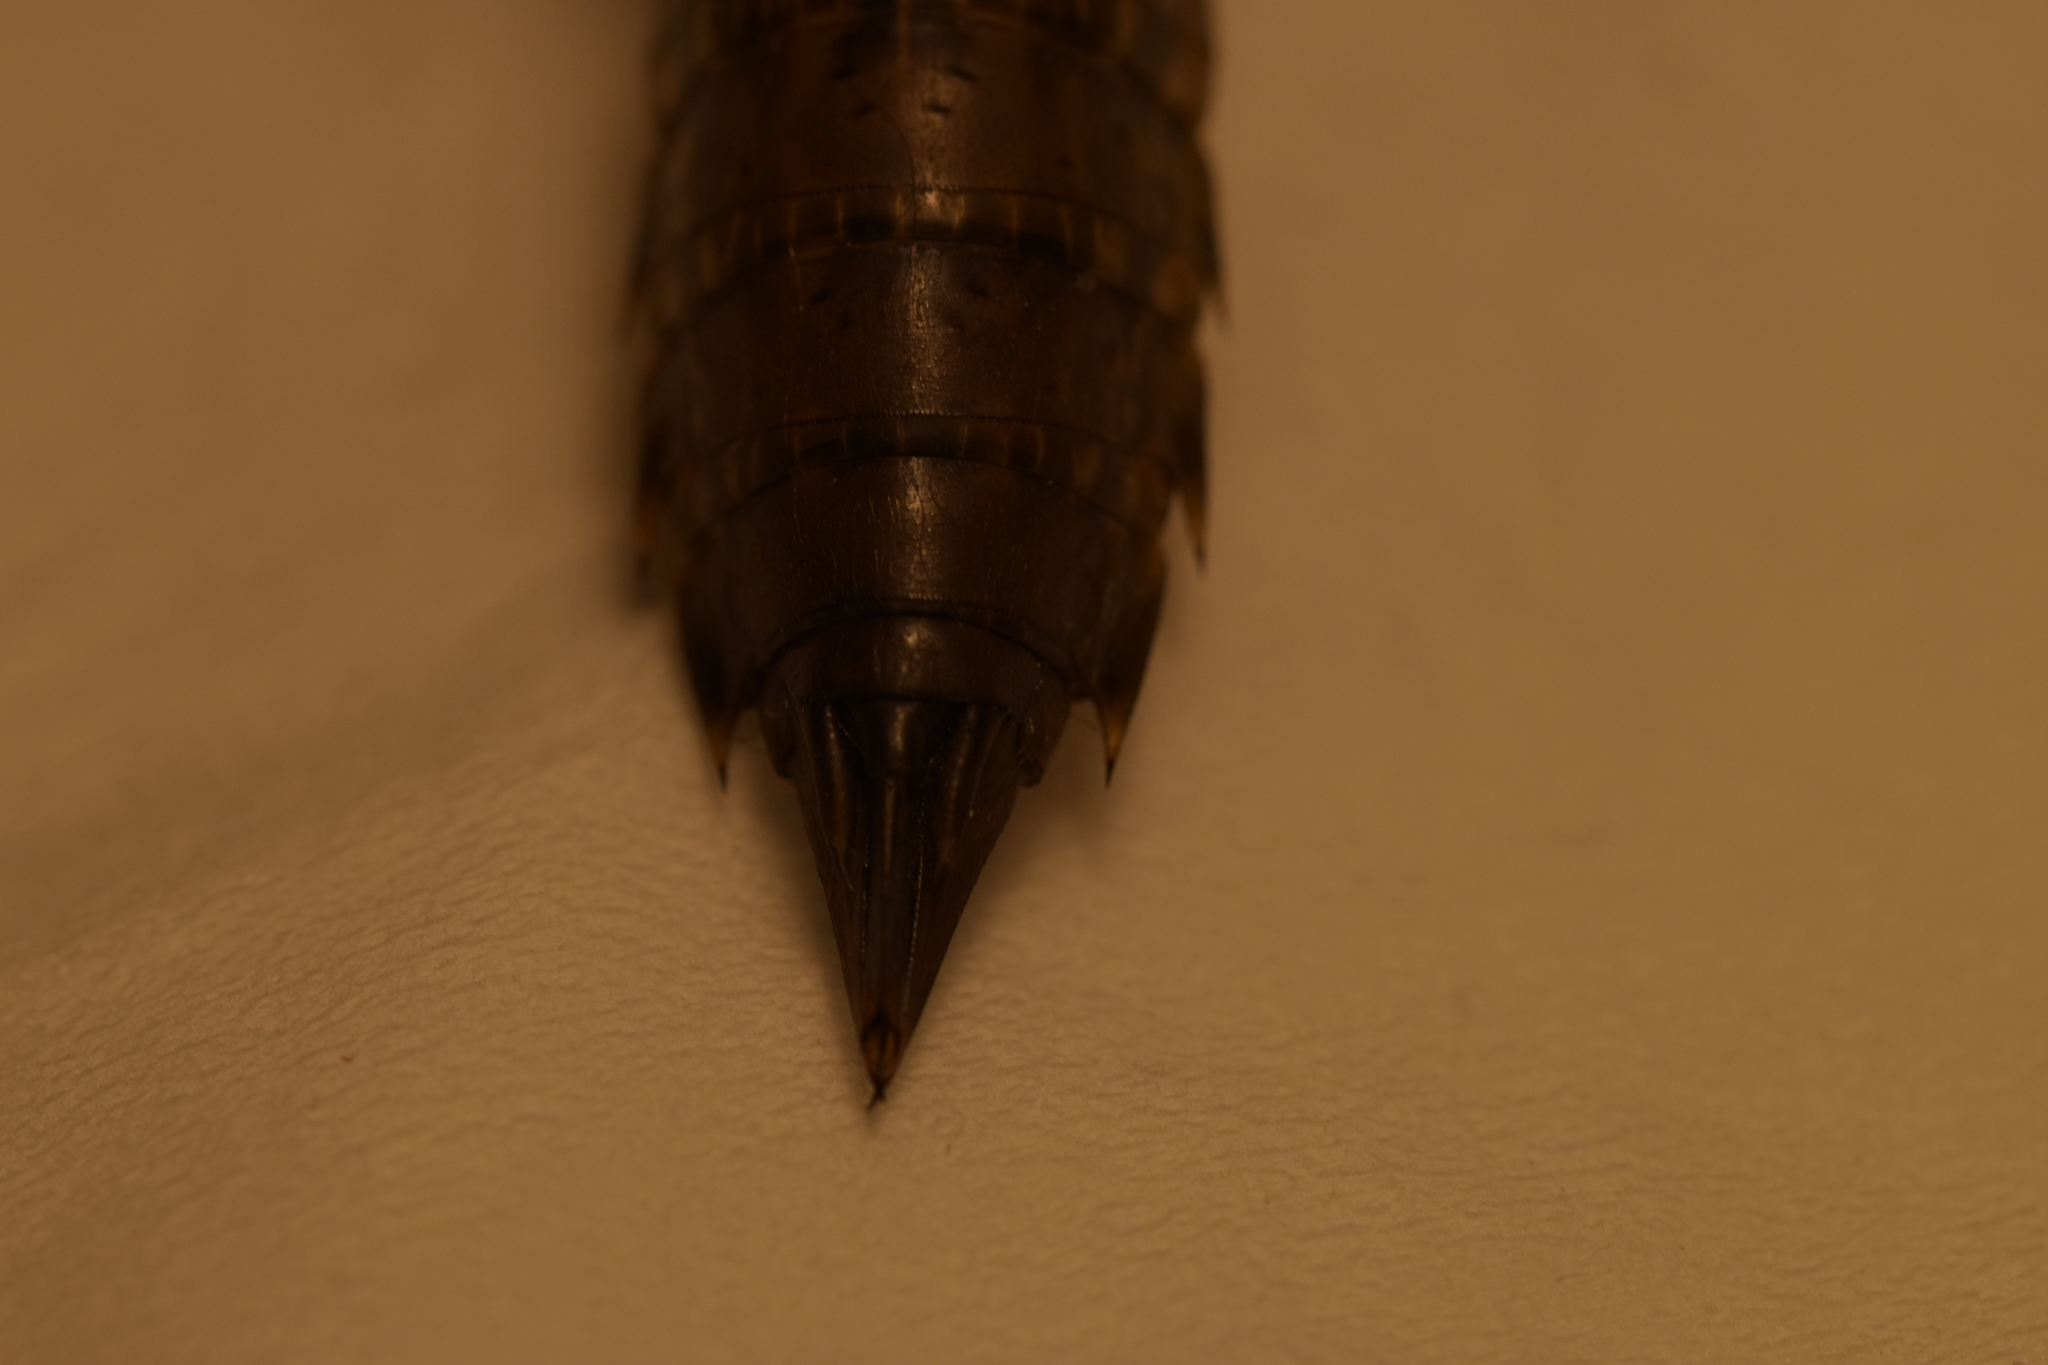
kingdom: Animalia
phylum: Arthropoda
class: Insecta
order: Odonata
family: Aeshnidae
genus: Anax
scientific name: Anax imperator
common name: Emperor dragonfly
